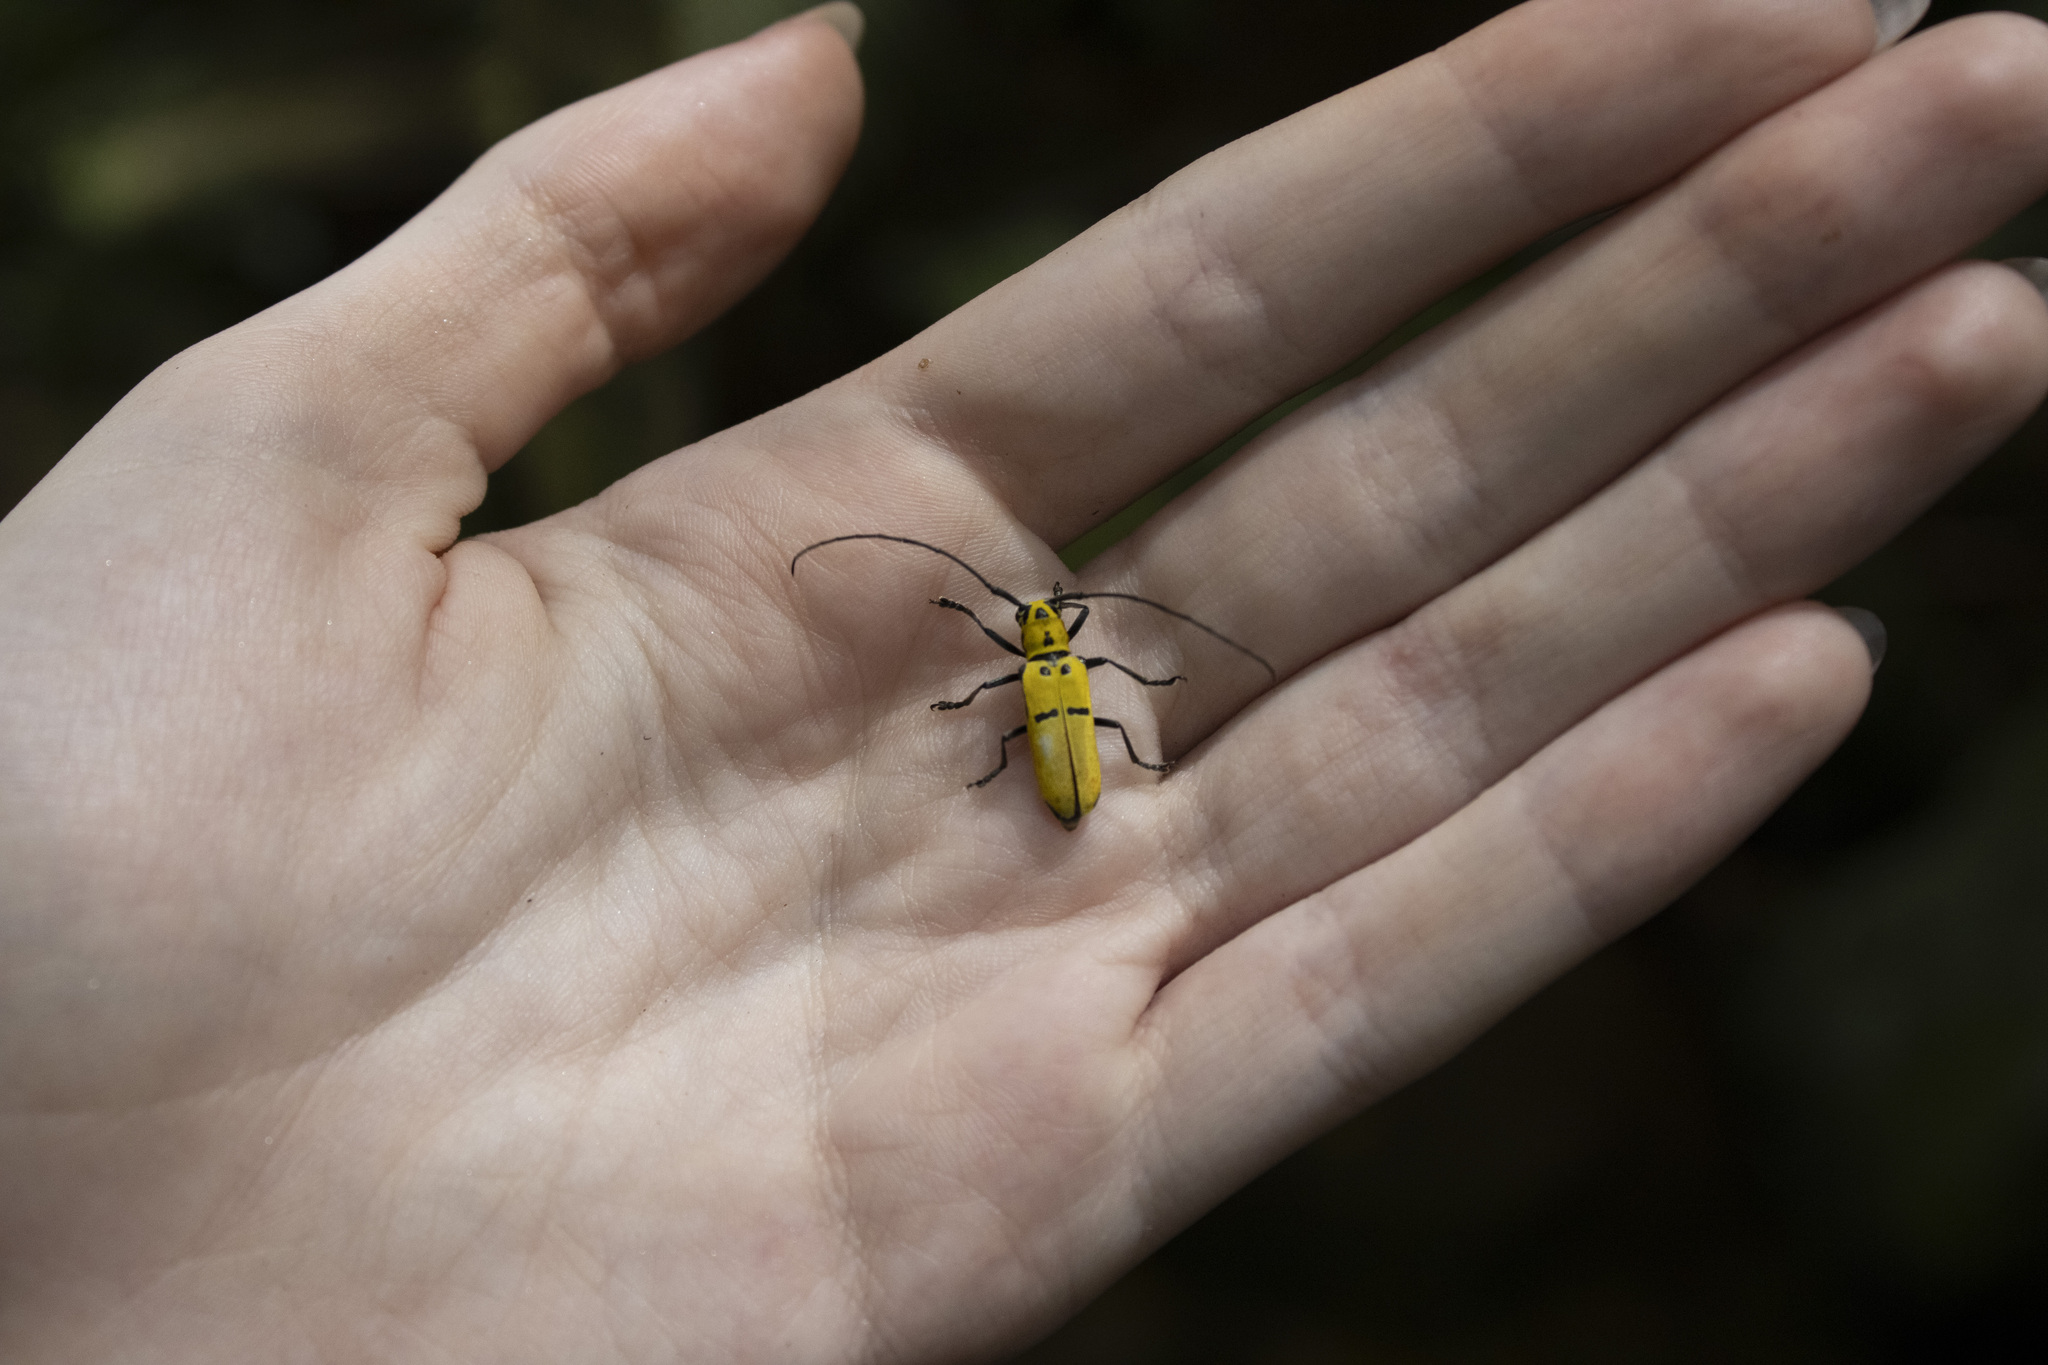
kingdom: Animalia
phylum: Arthropoda
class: Insecta
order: Coleoptera
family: Cerambycidae
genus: Adesmus
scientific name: Adesmus hemispilus
